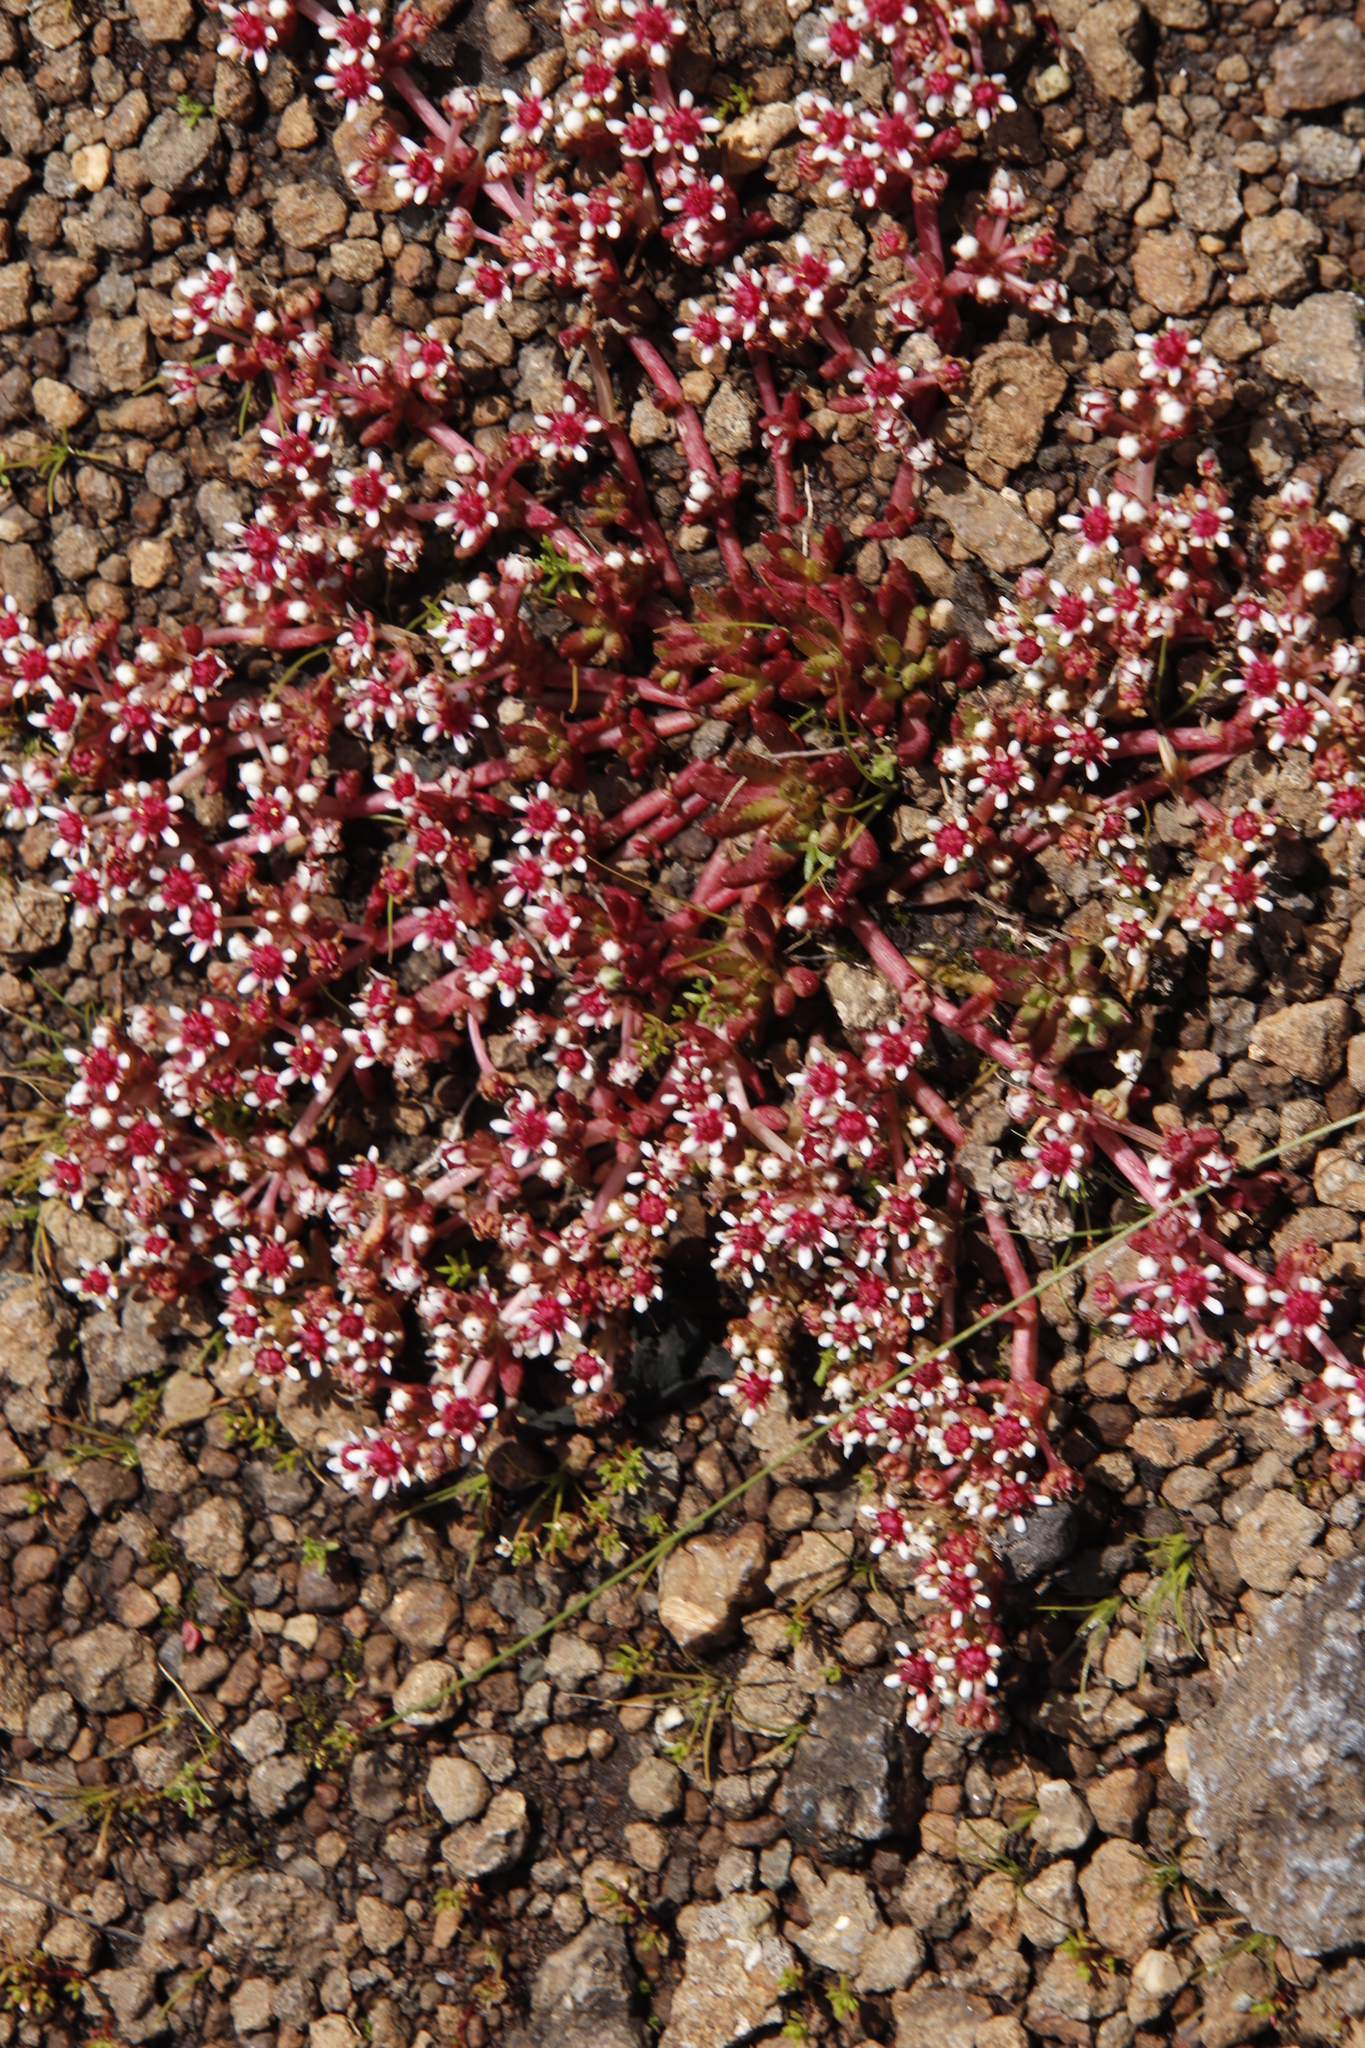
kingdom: Plantae
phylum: Tracheophyta
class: Magnoliopsida
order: Saxifragales
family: Crassulaceae
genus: Crassula
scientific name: Crassula peploides
